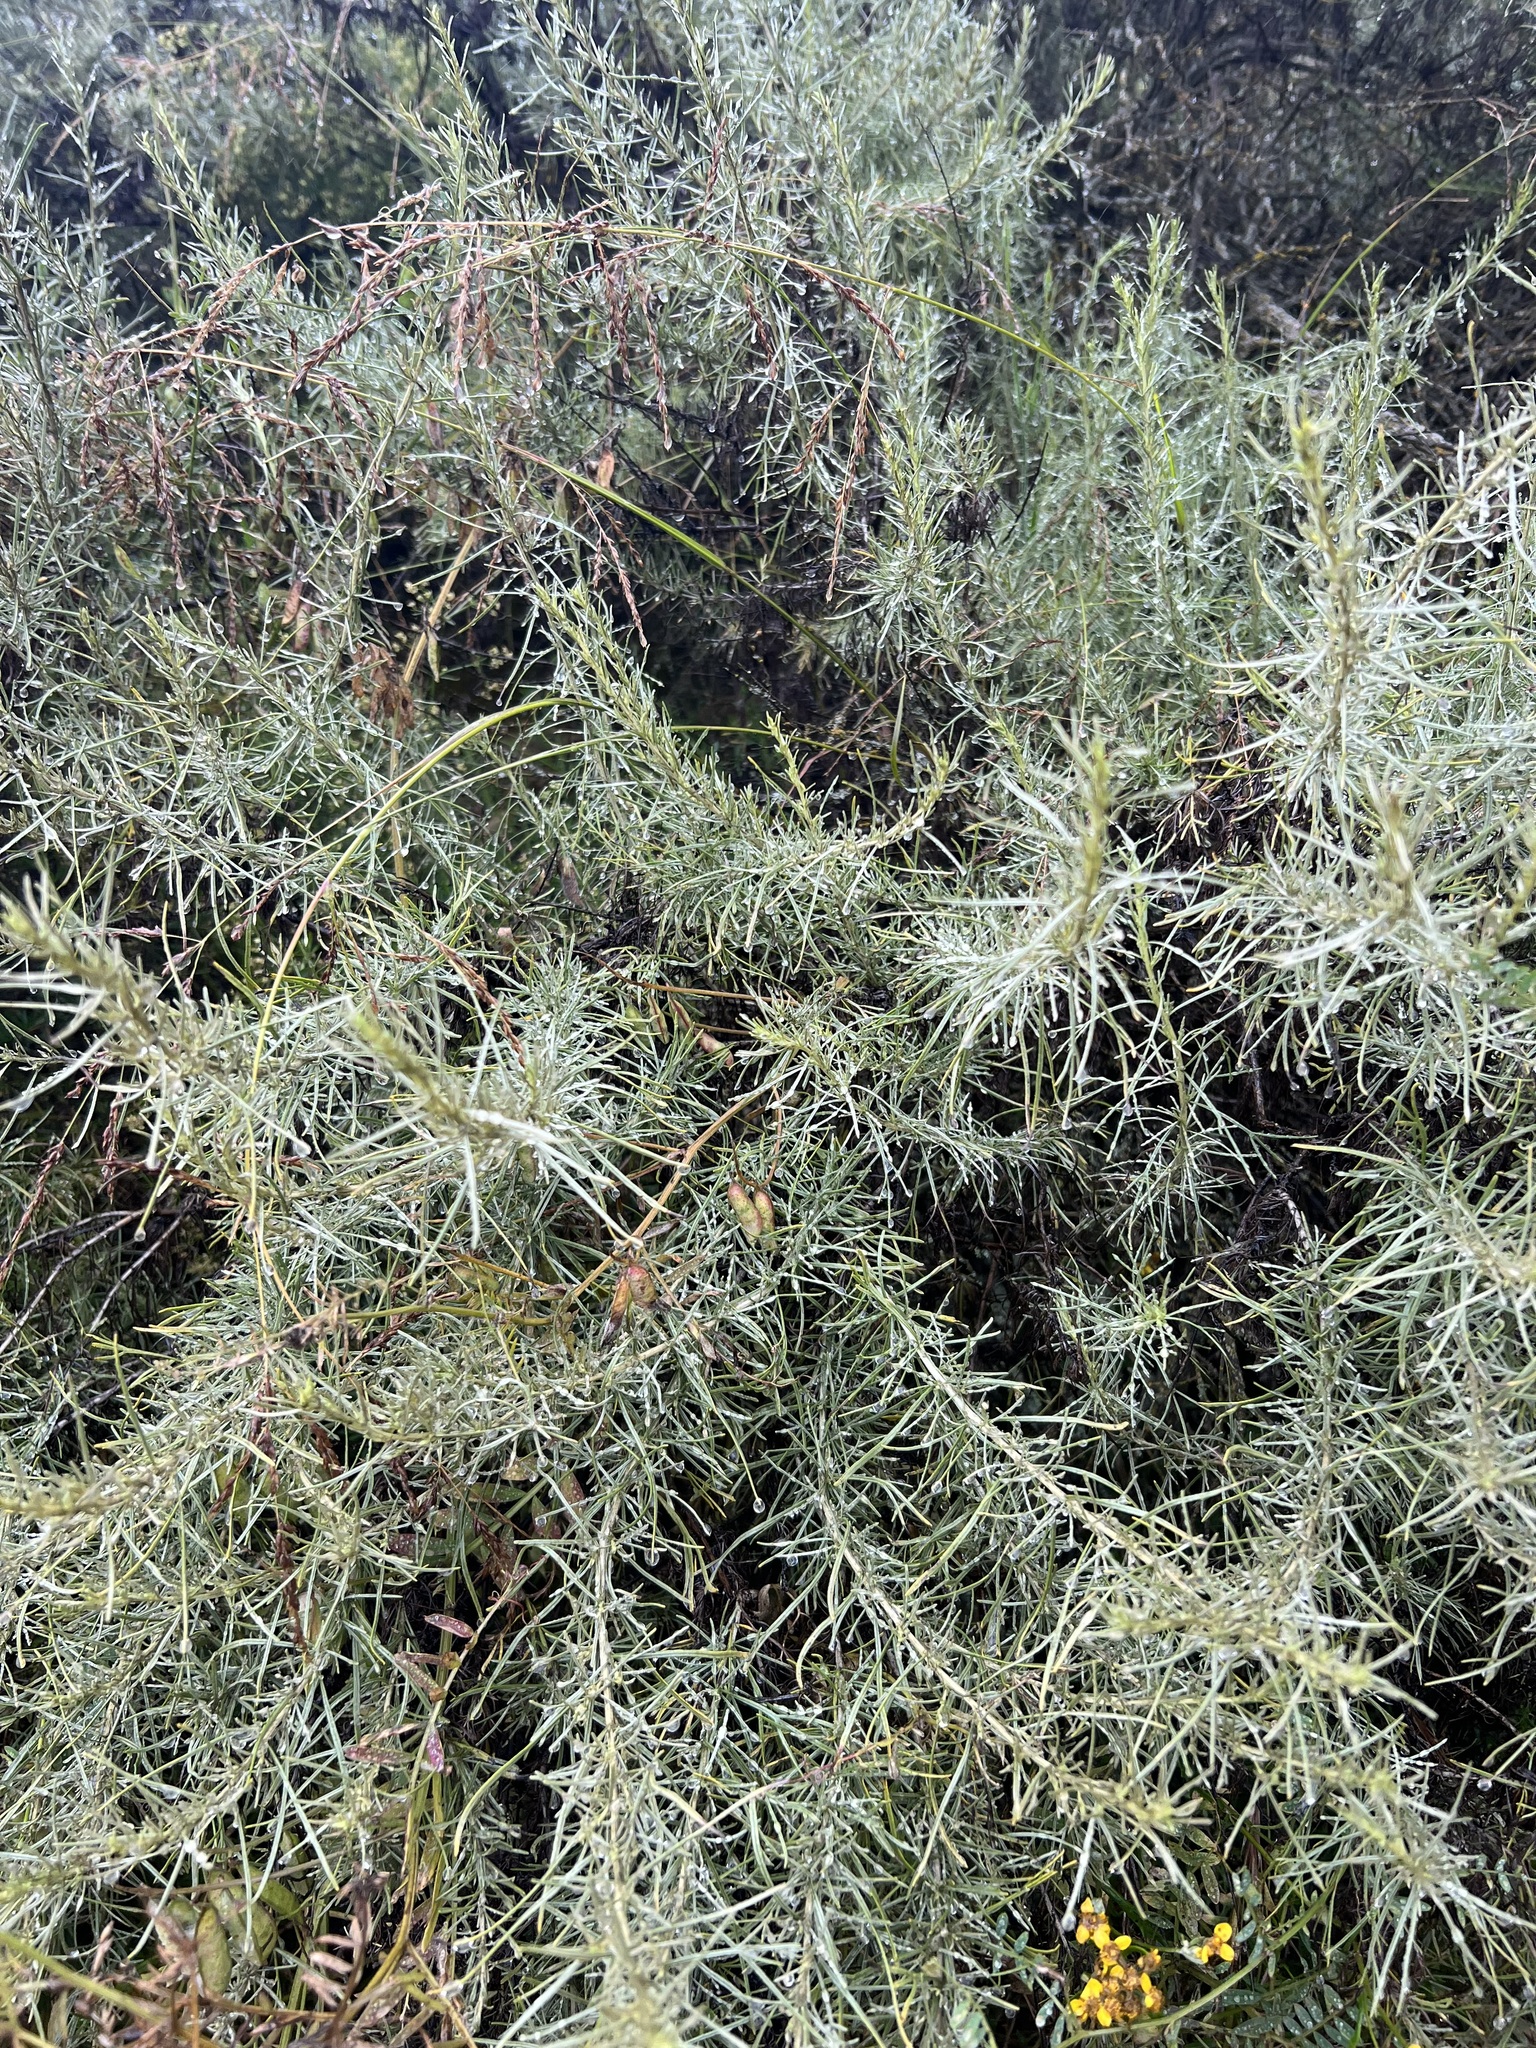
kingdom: Plantae
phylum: Tracheophyta
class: Magnoliopsida
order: Asterales
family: Asteraceae
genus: Artemisia
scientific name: Artemisia californica
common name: California sagebrush
